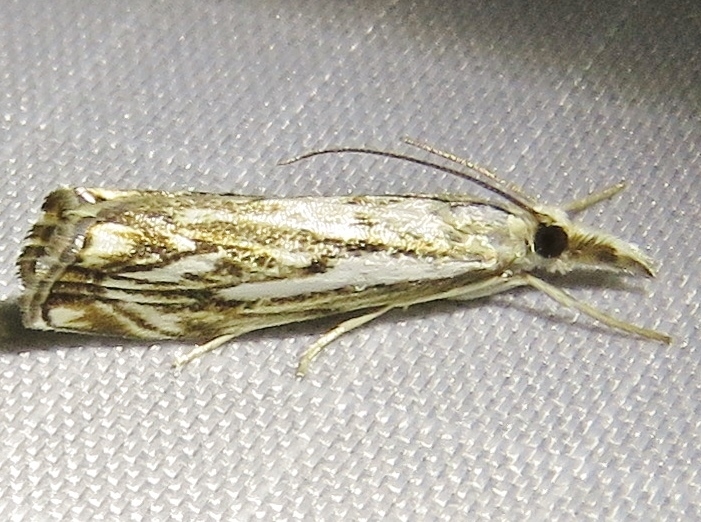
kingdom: Animalia
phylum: Arthropoda
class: Insecta
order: Lepidoptera
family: Crambidae
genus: Catoptria
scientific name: Catoptria falsella
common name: Chequered grass-veneer
